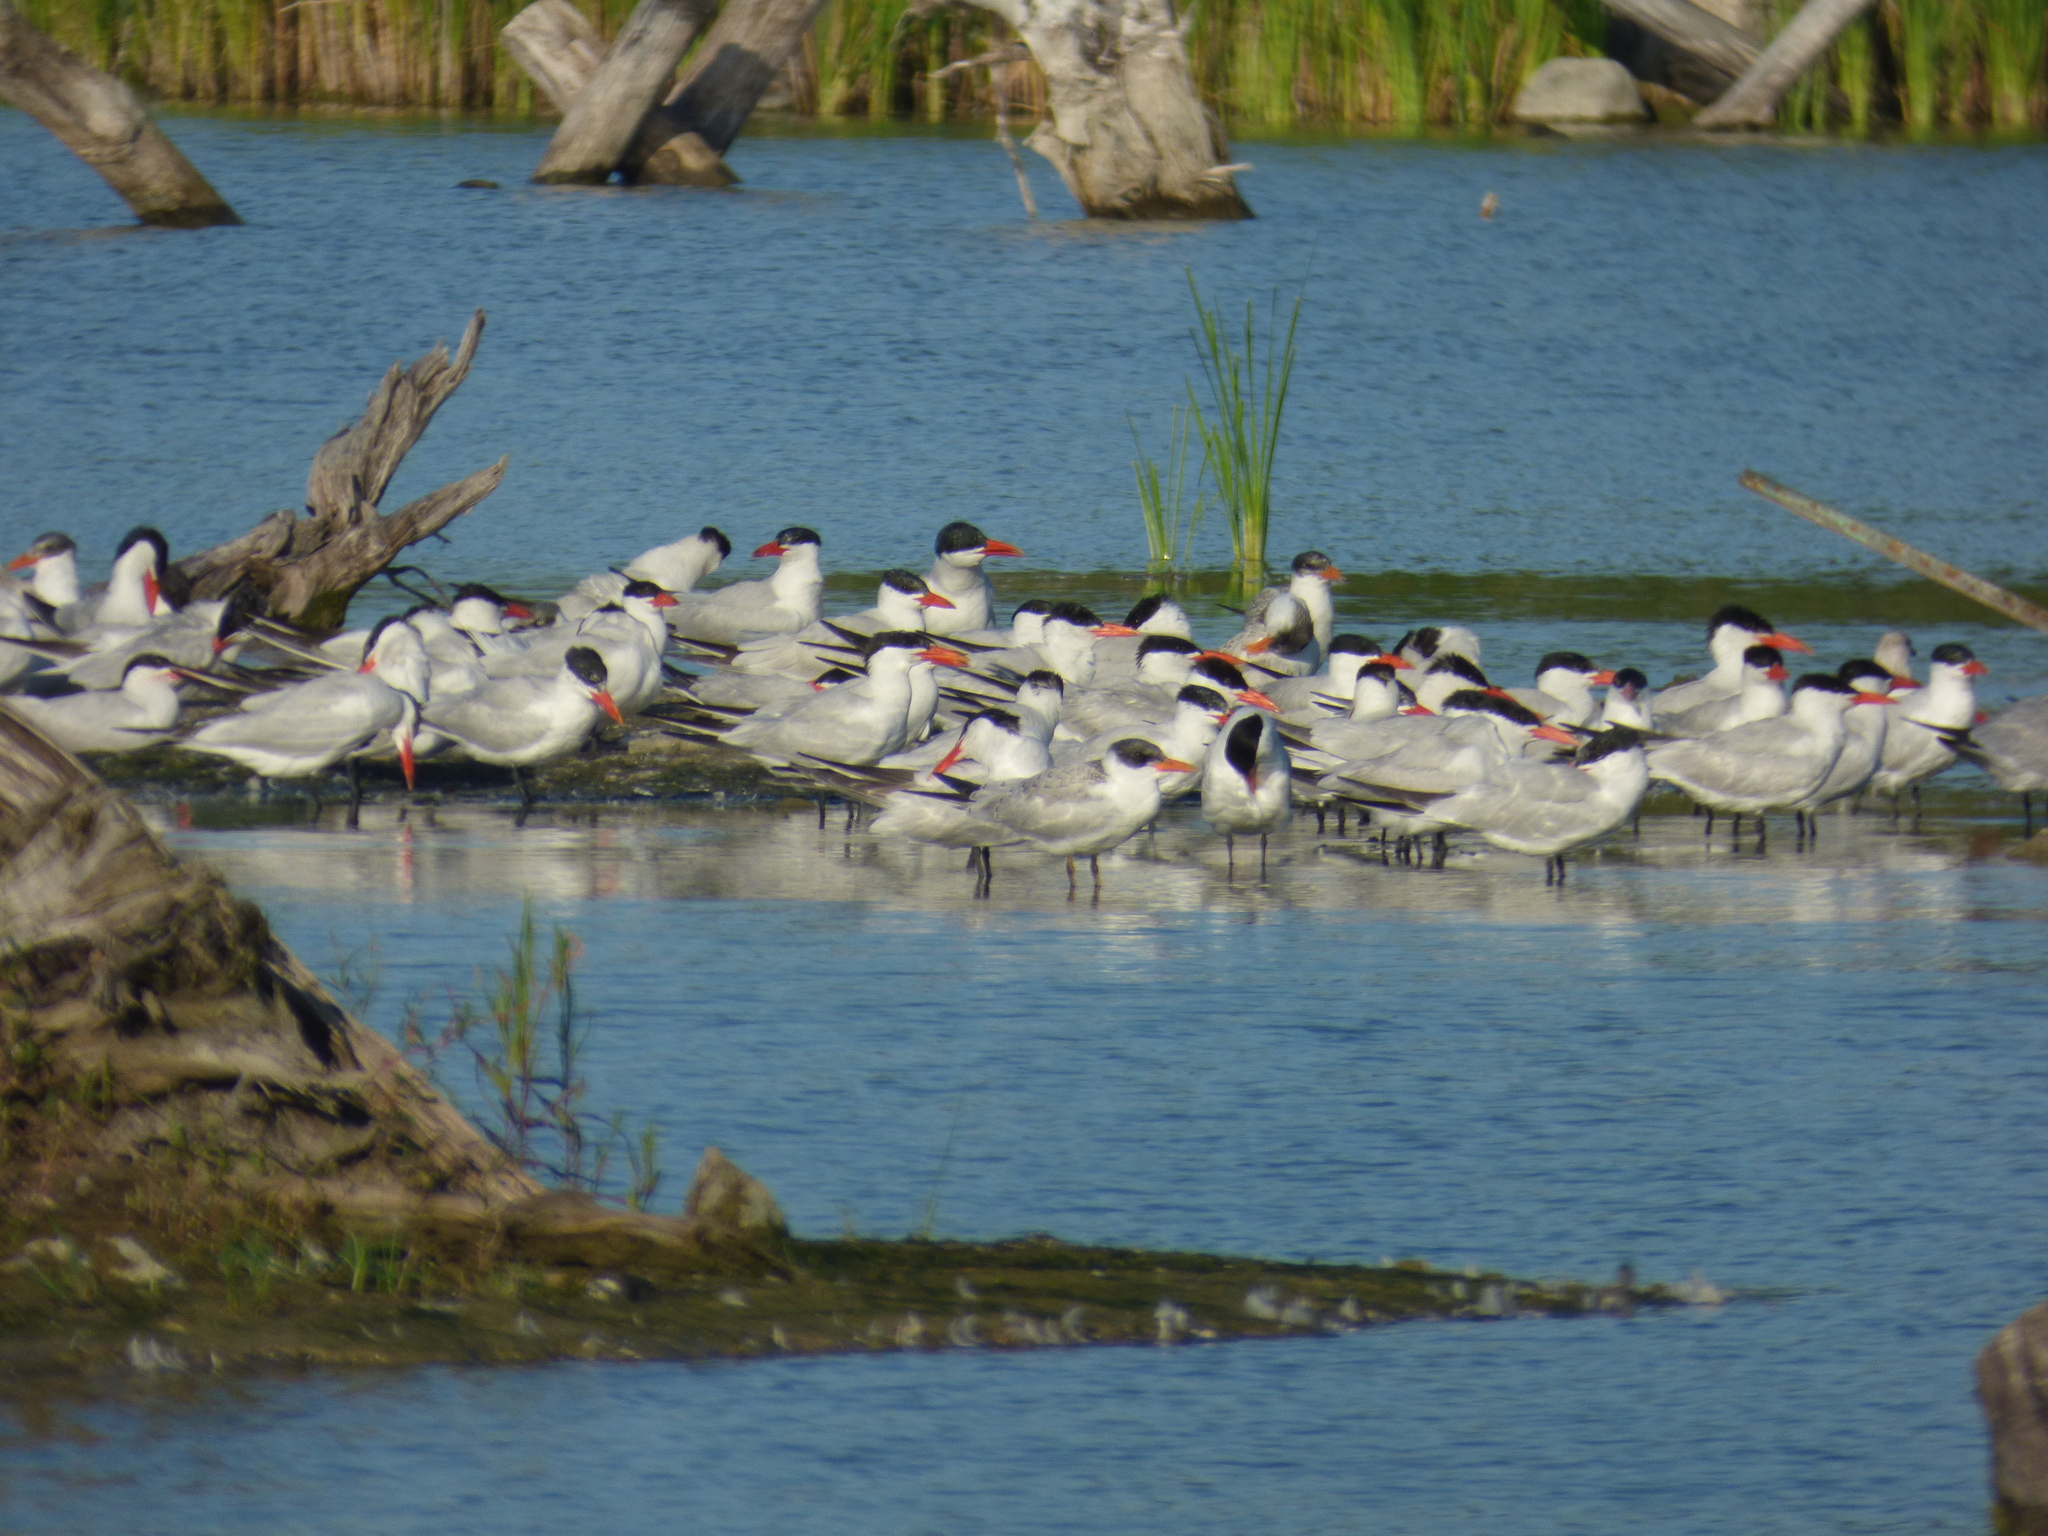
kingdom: Animalia
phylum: Chordata
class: Aves
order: Charadriiformes
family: Laridae
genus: Hydroprogne
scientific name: Hydroprogne caspia
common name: Caspian tern
